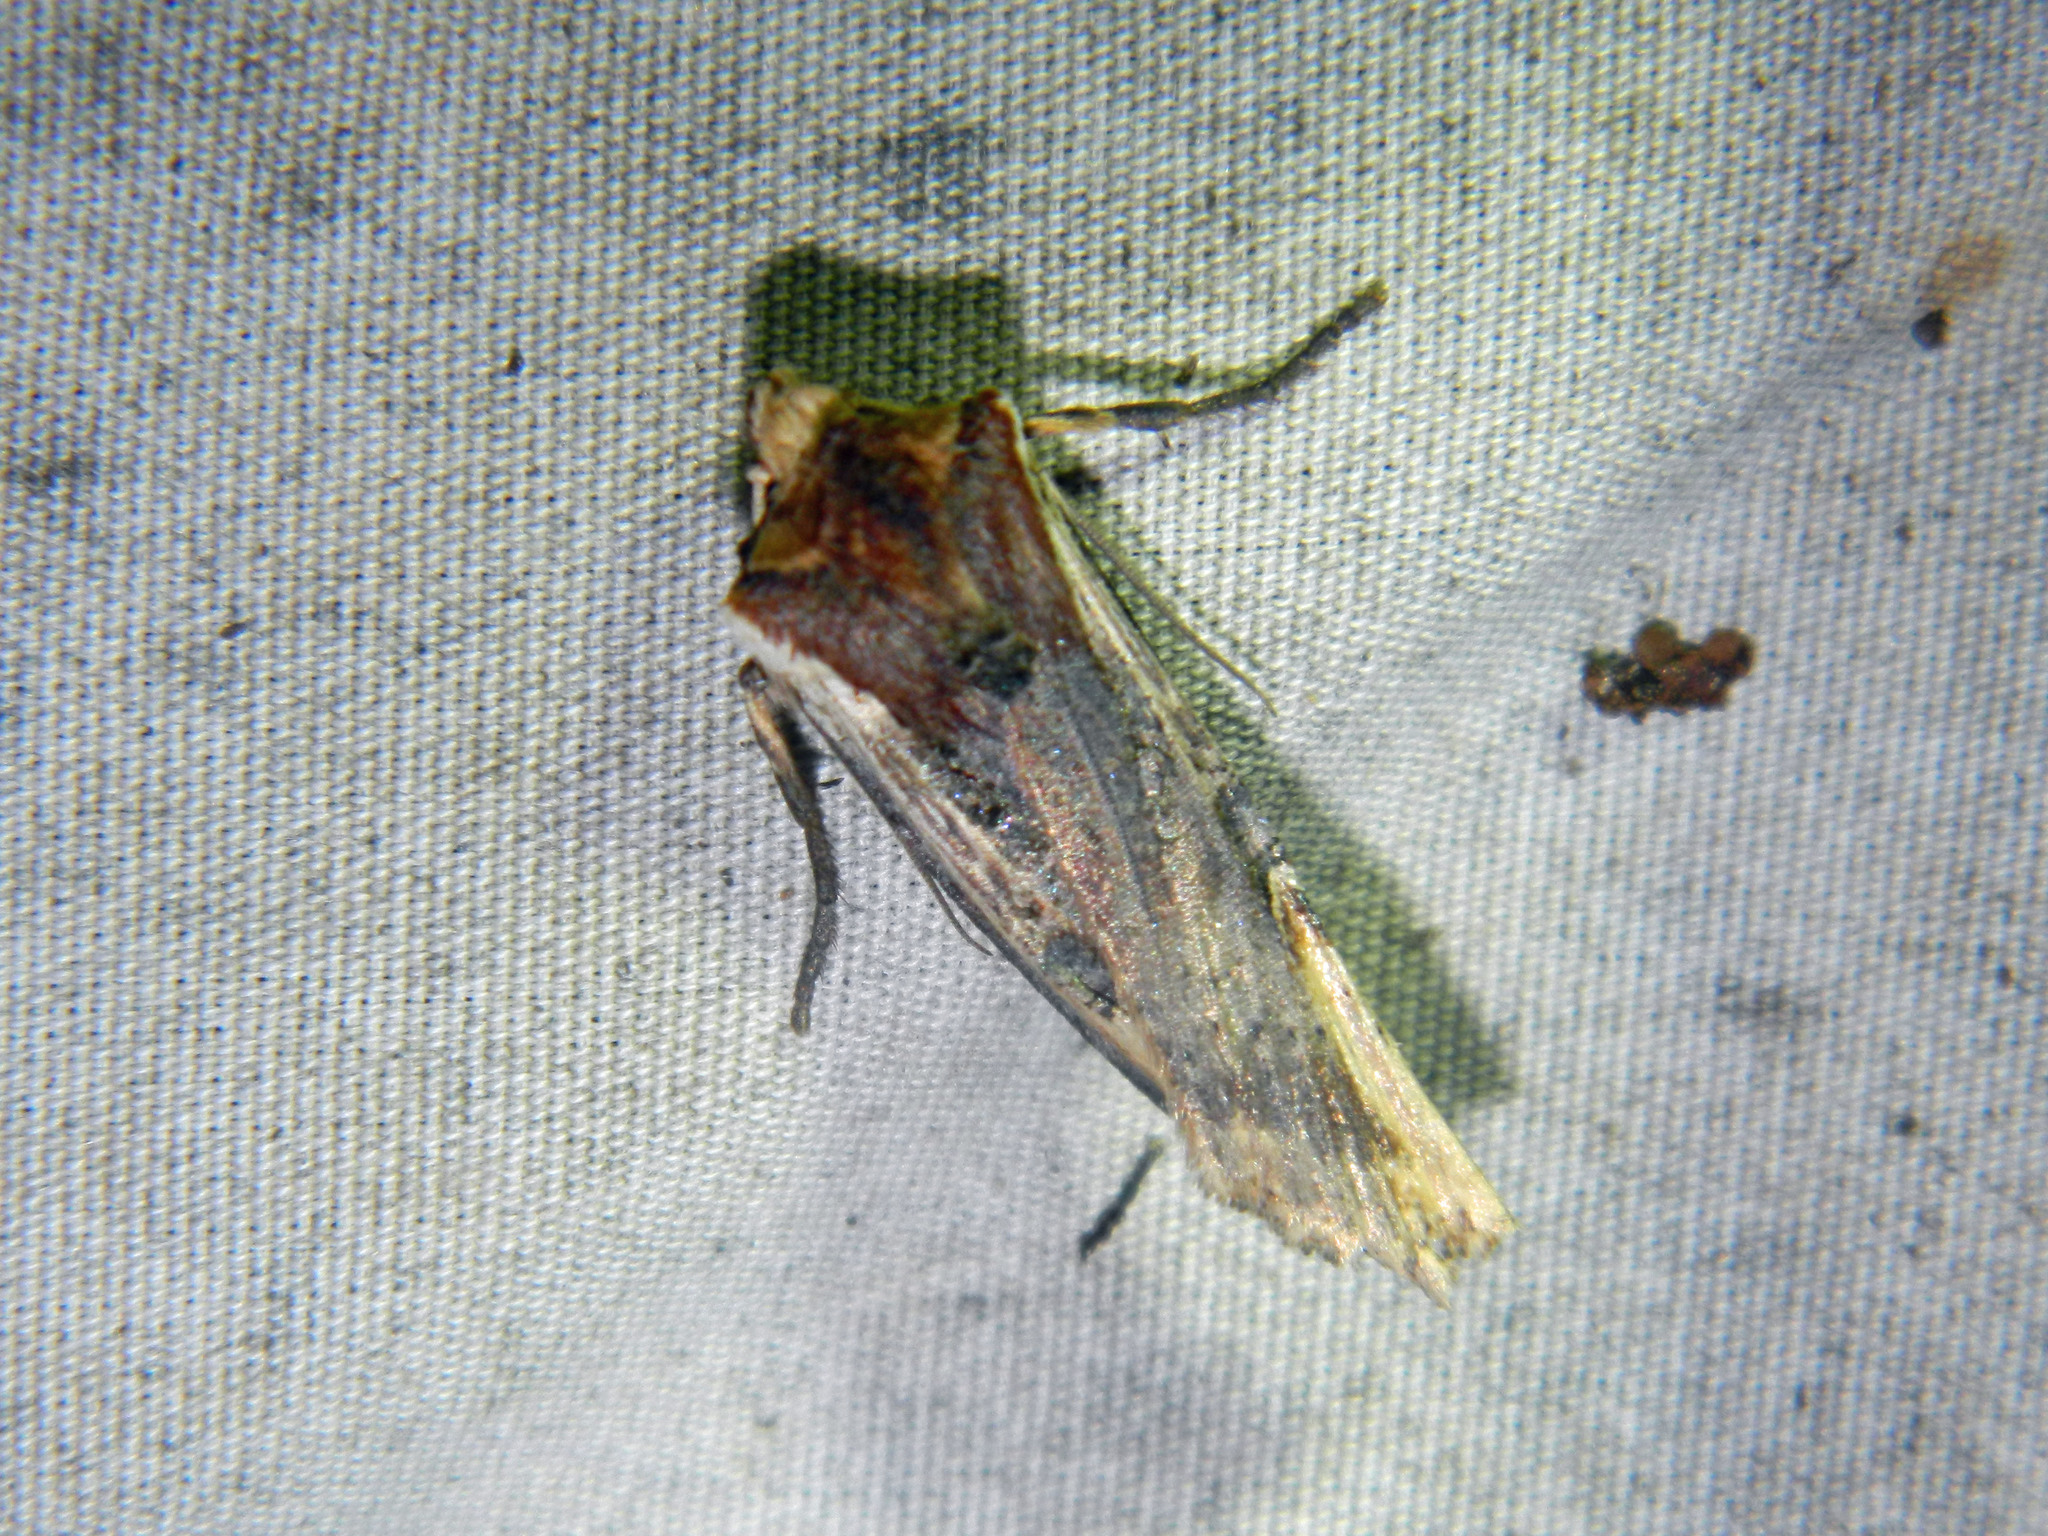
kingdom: Animalia
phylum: Arthropoda
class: Insecta
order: Lepidoptera
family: Noctuidae
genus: Xylena
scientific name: Xylena curvimacula
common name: Dot-and-dash swordgrass moth
